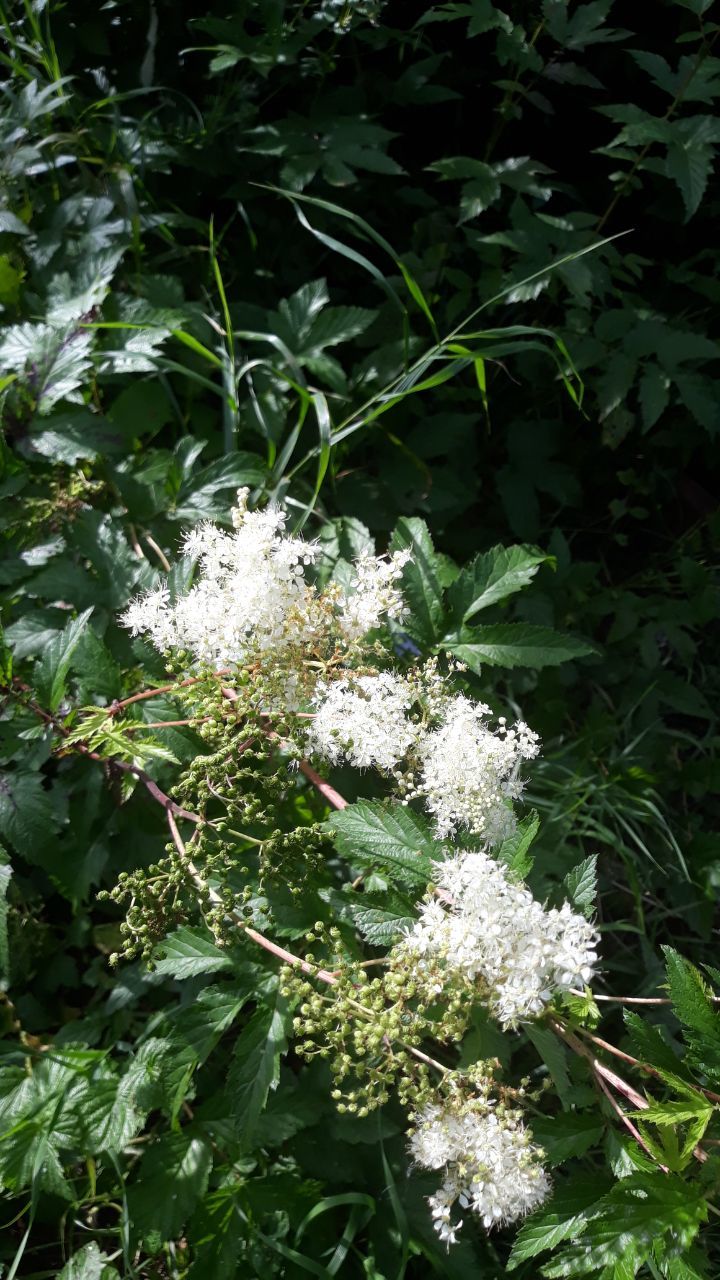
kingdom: Plantae
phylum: Tracheophyta
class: Magnoliopsida
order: Rosales
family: Rosaceae
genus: Filipendula
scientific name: Filipendula ulmaria
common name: Meadowsweet
